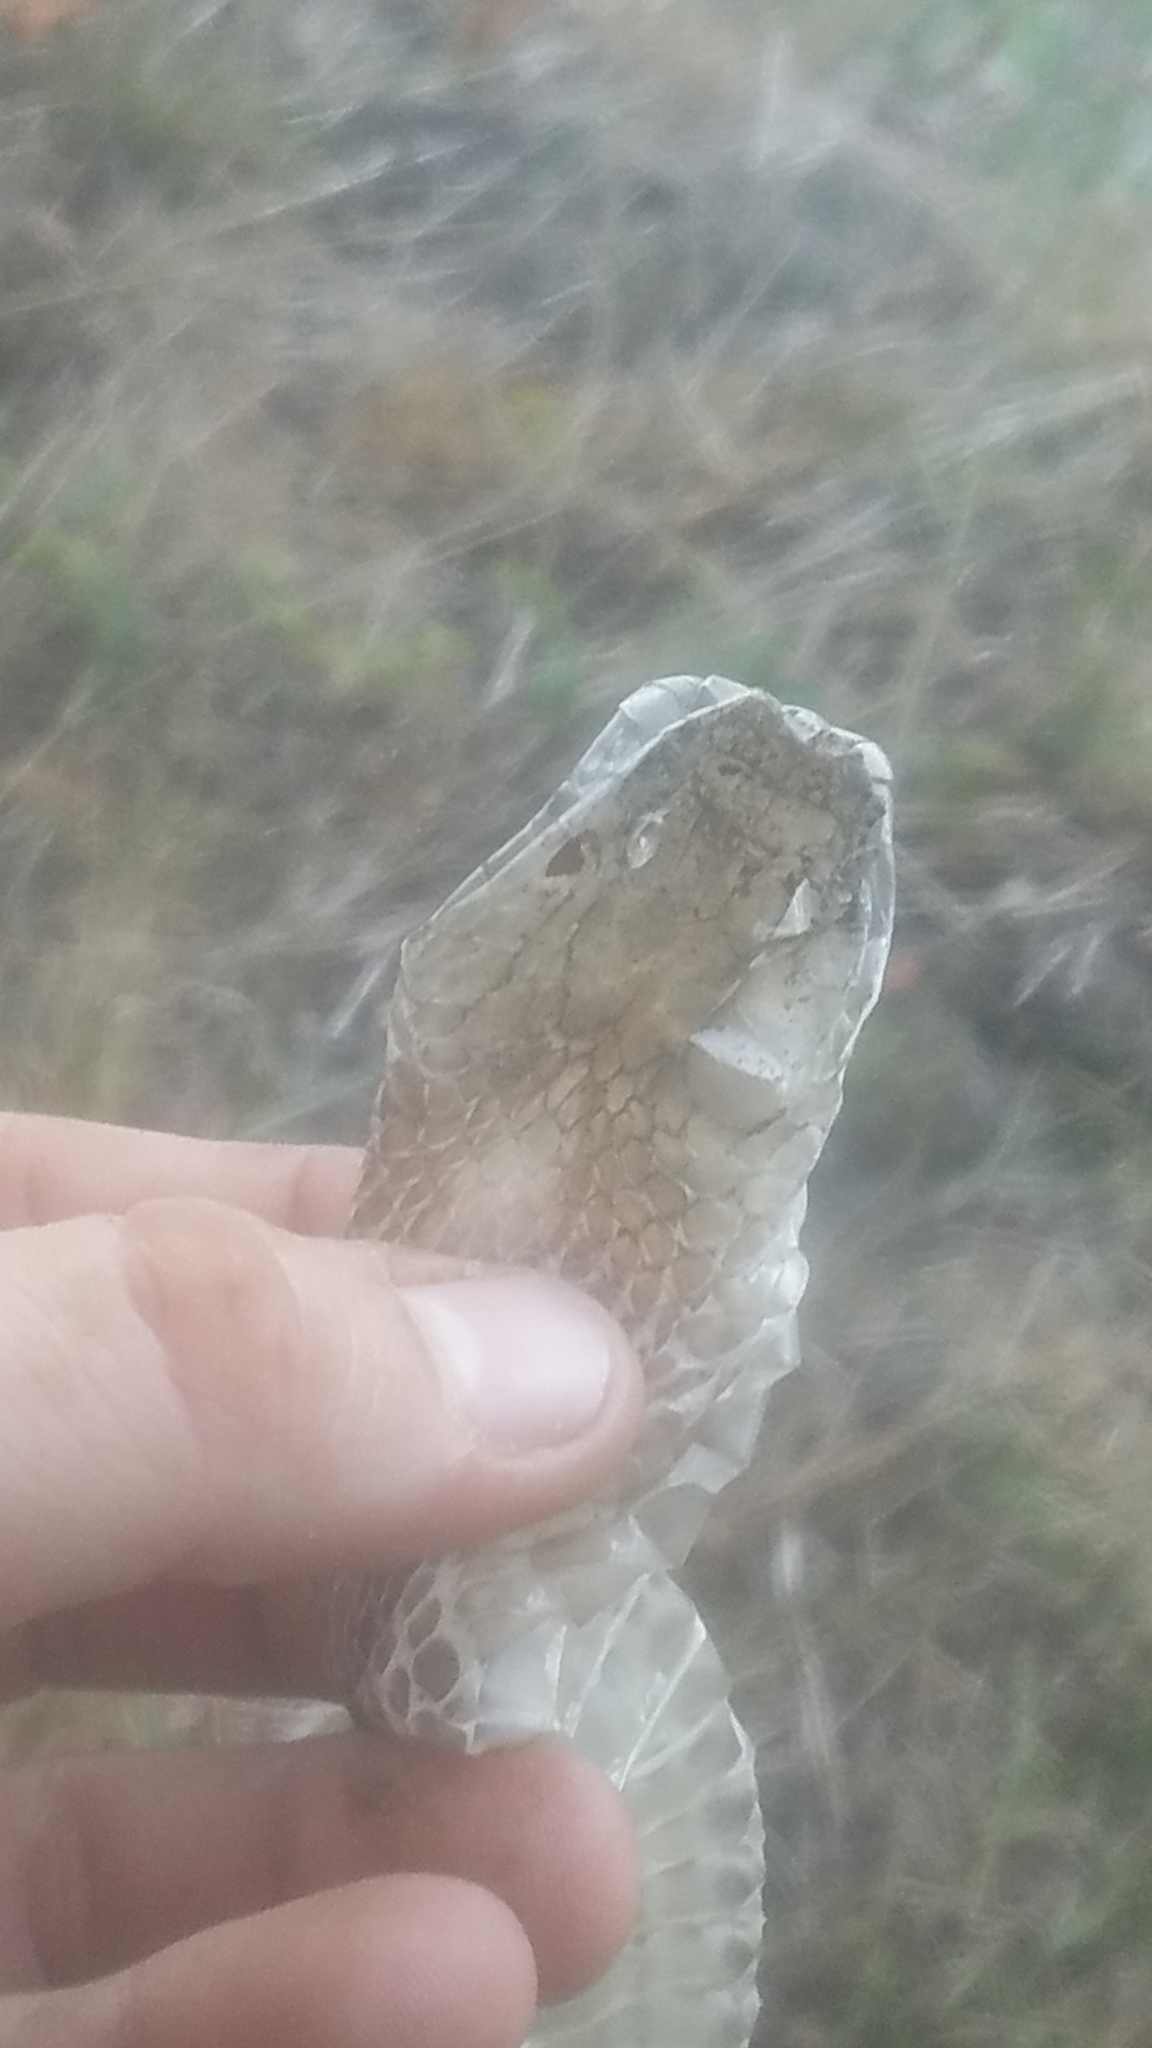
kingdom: Animalia
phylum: Chordata
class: Squamata
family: Colubridae
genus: Thamnophis
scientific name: Thamnophis sirtalis
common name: Common garter snake
